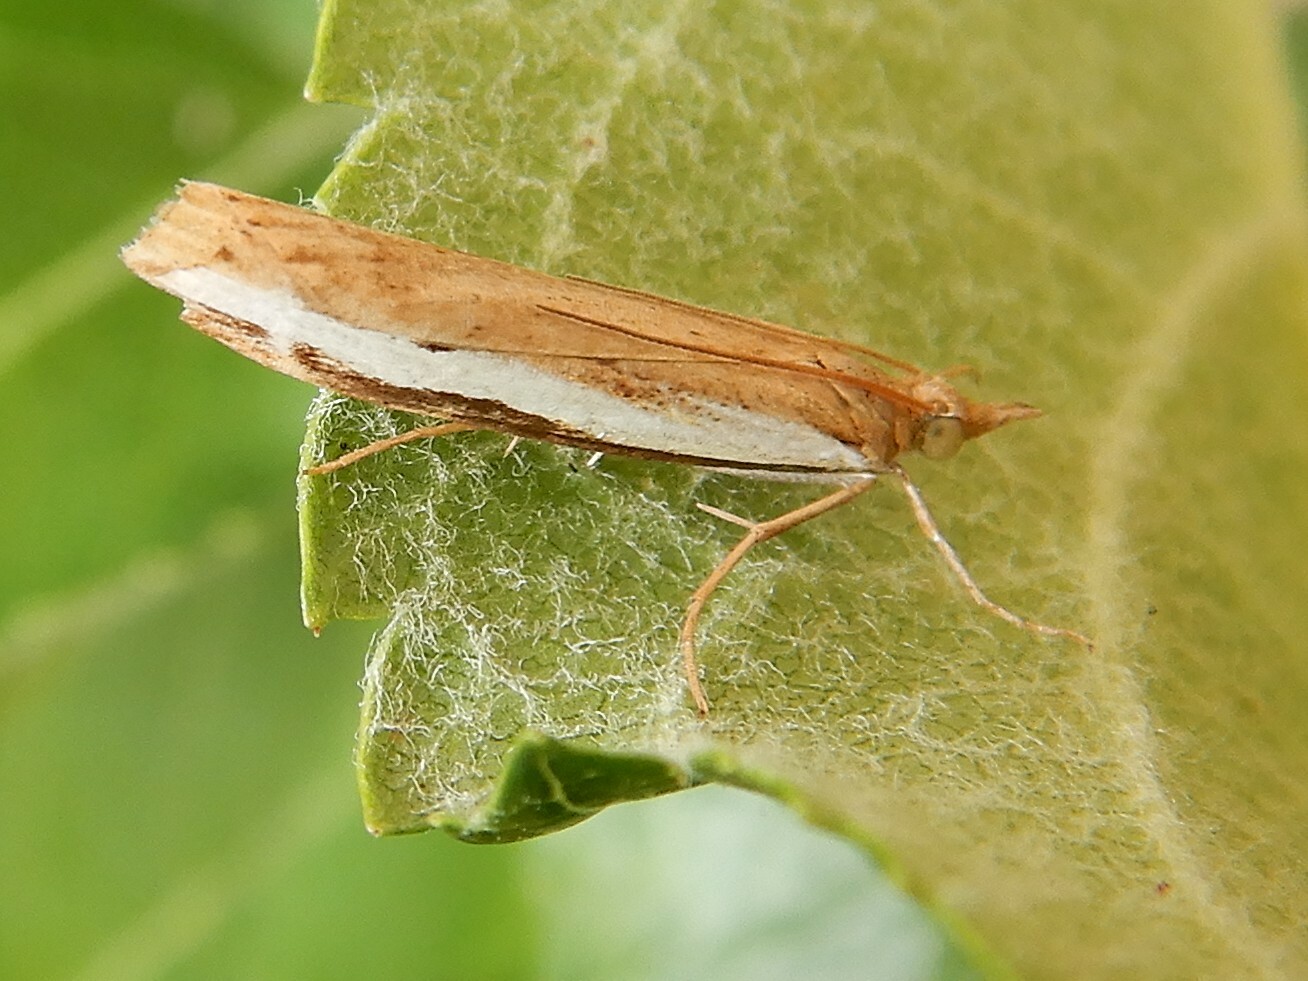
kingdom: Animalia
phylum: Arthropoda
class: Insecta
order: Lepidoptera
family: Crambidae
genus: Orocrambus
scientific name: Orocrambus flexuosellus
